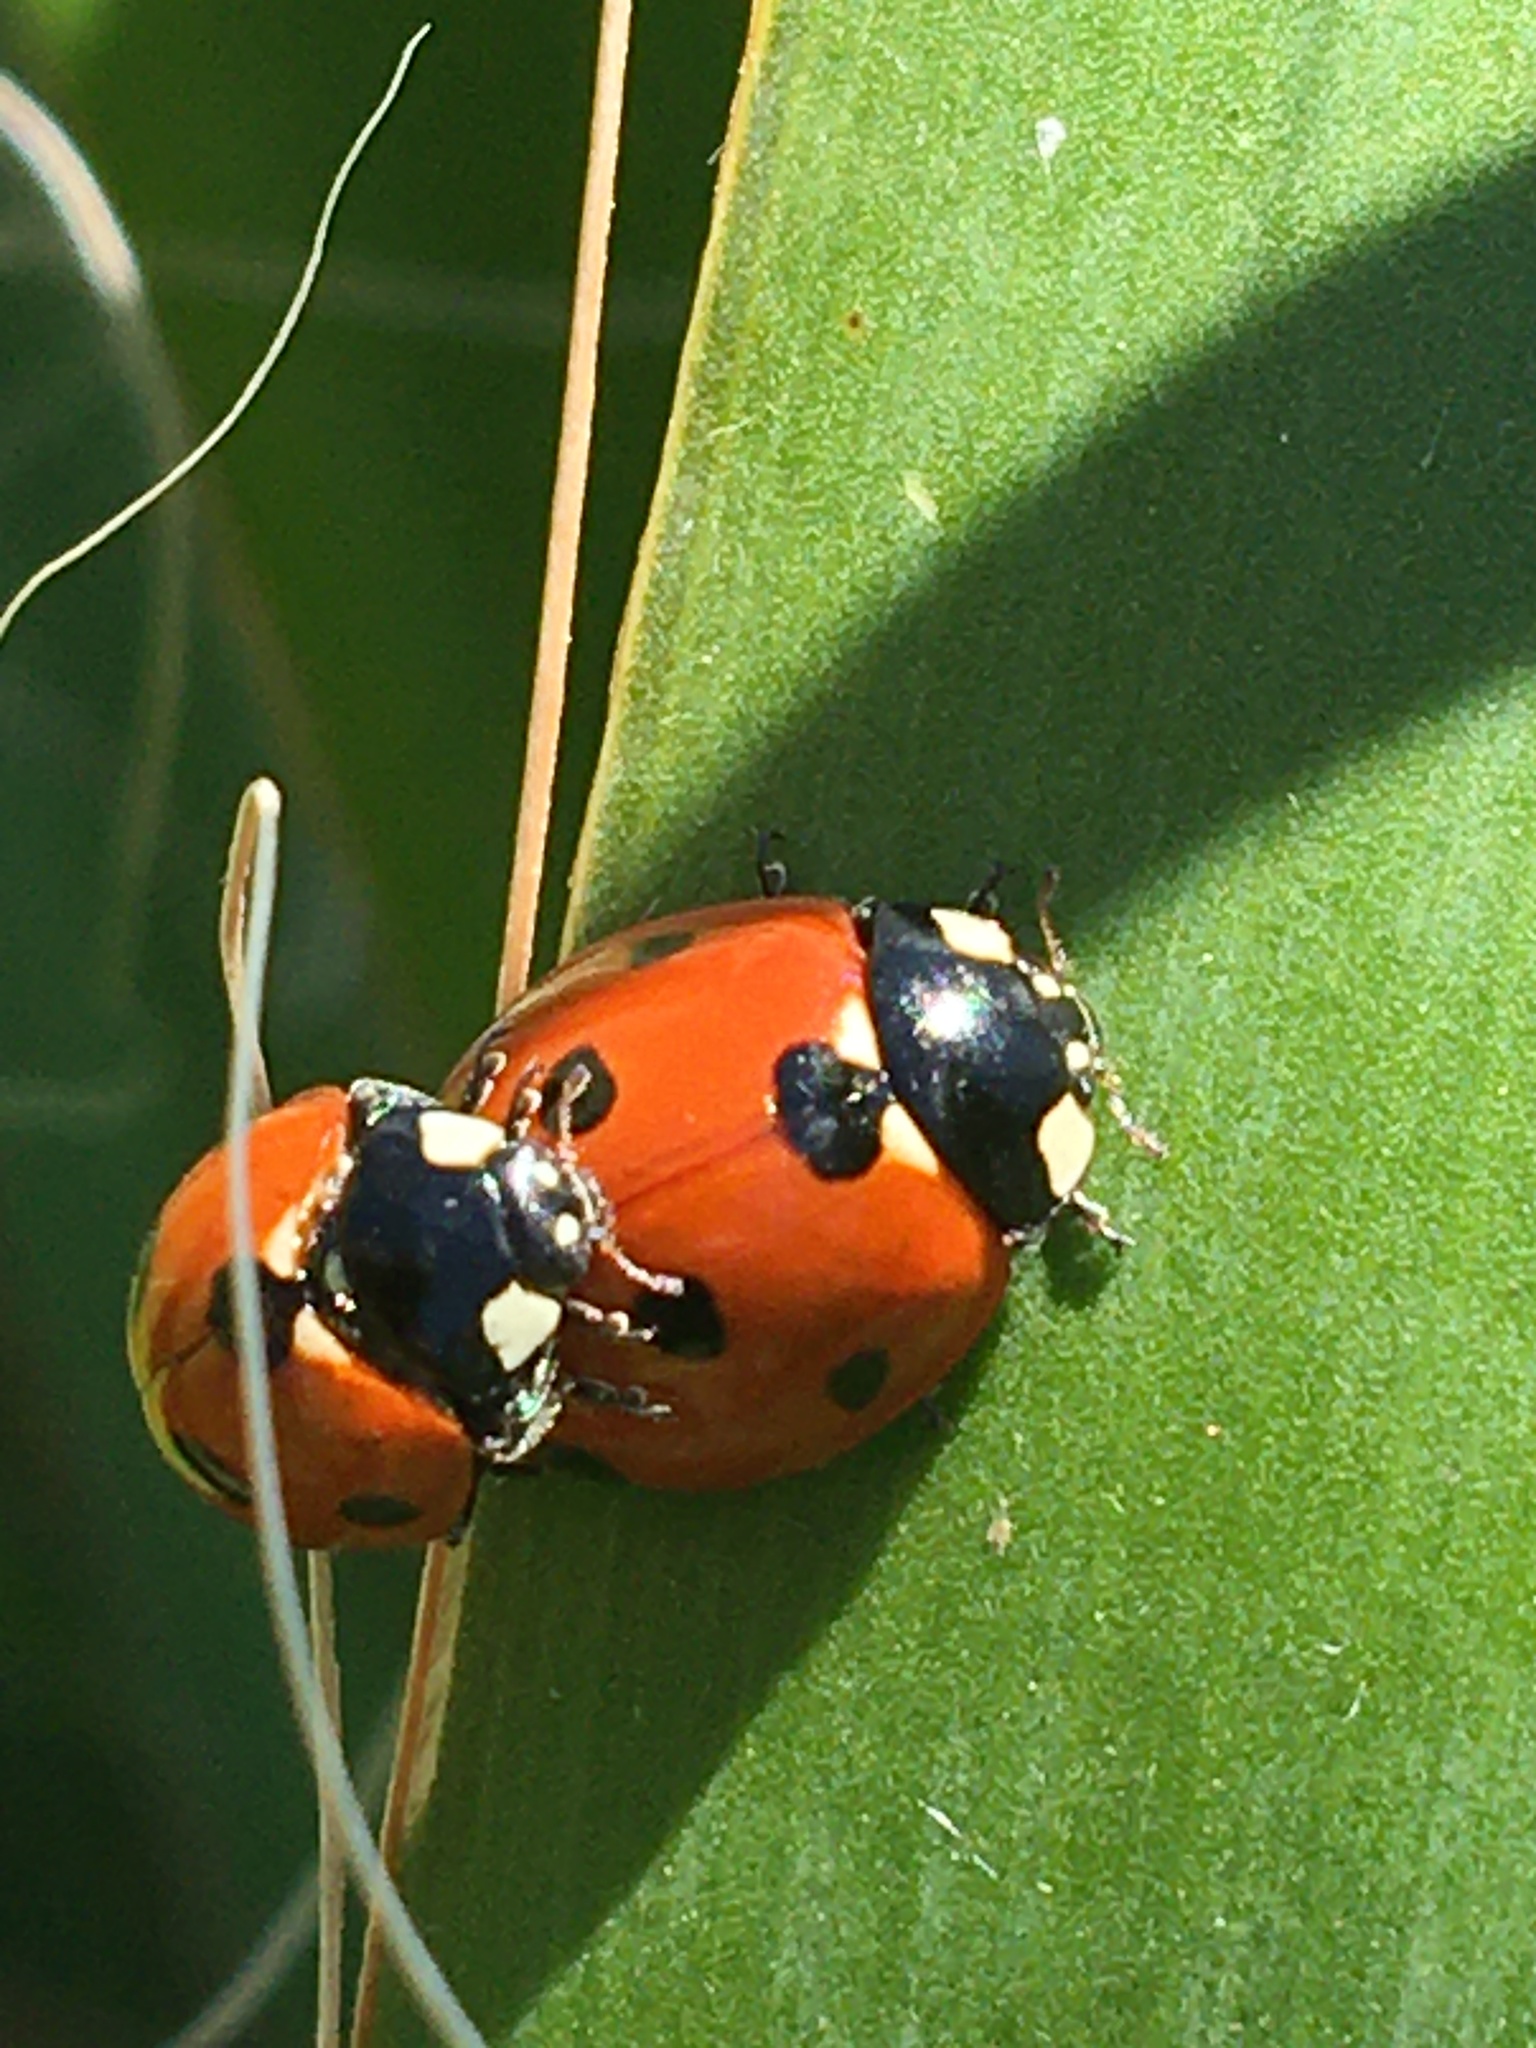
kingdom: Animalia
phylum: Arthropoda
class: Insecta
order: Coleoptera
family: Coccinellidae
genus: Coccinella
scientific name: Coccinella septempunctata
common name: Sevenspotted lady beetle
